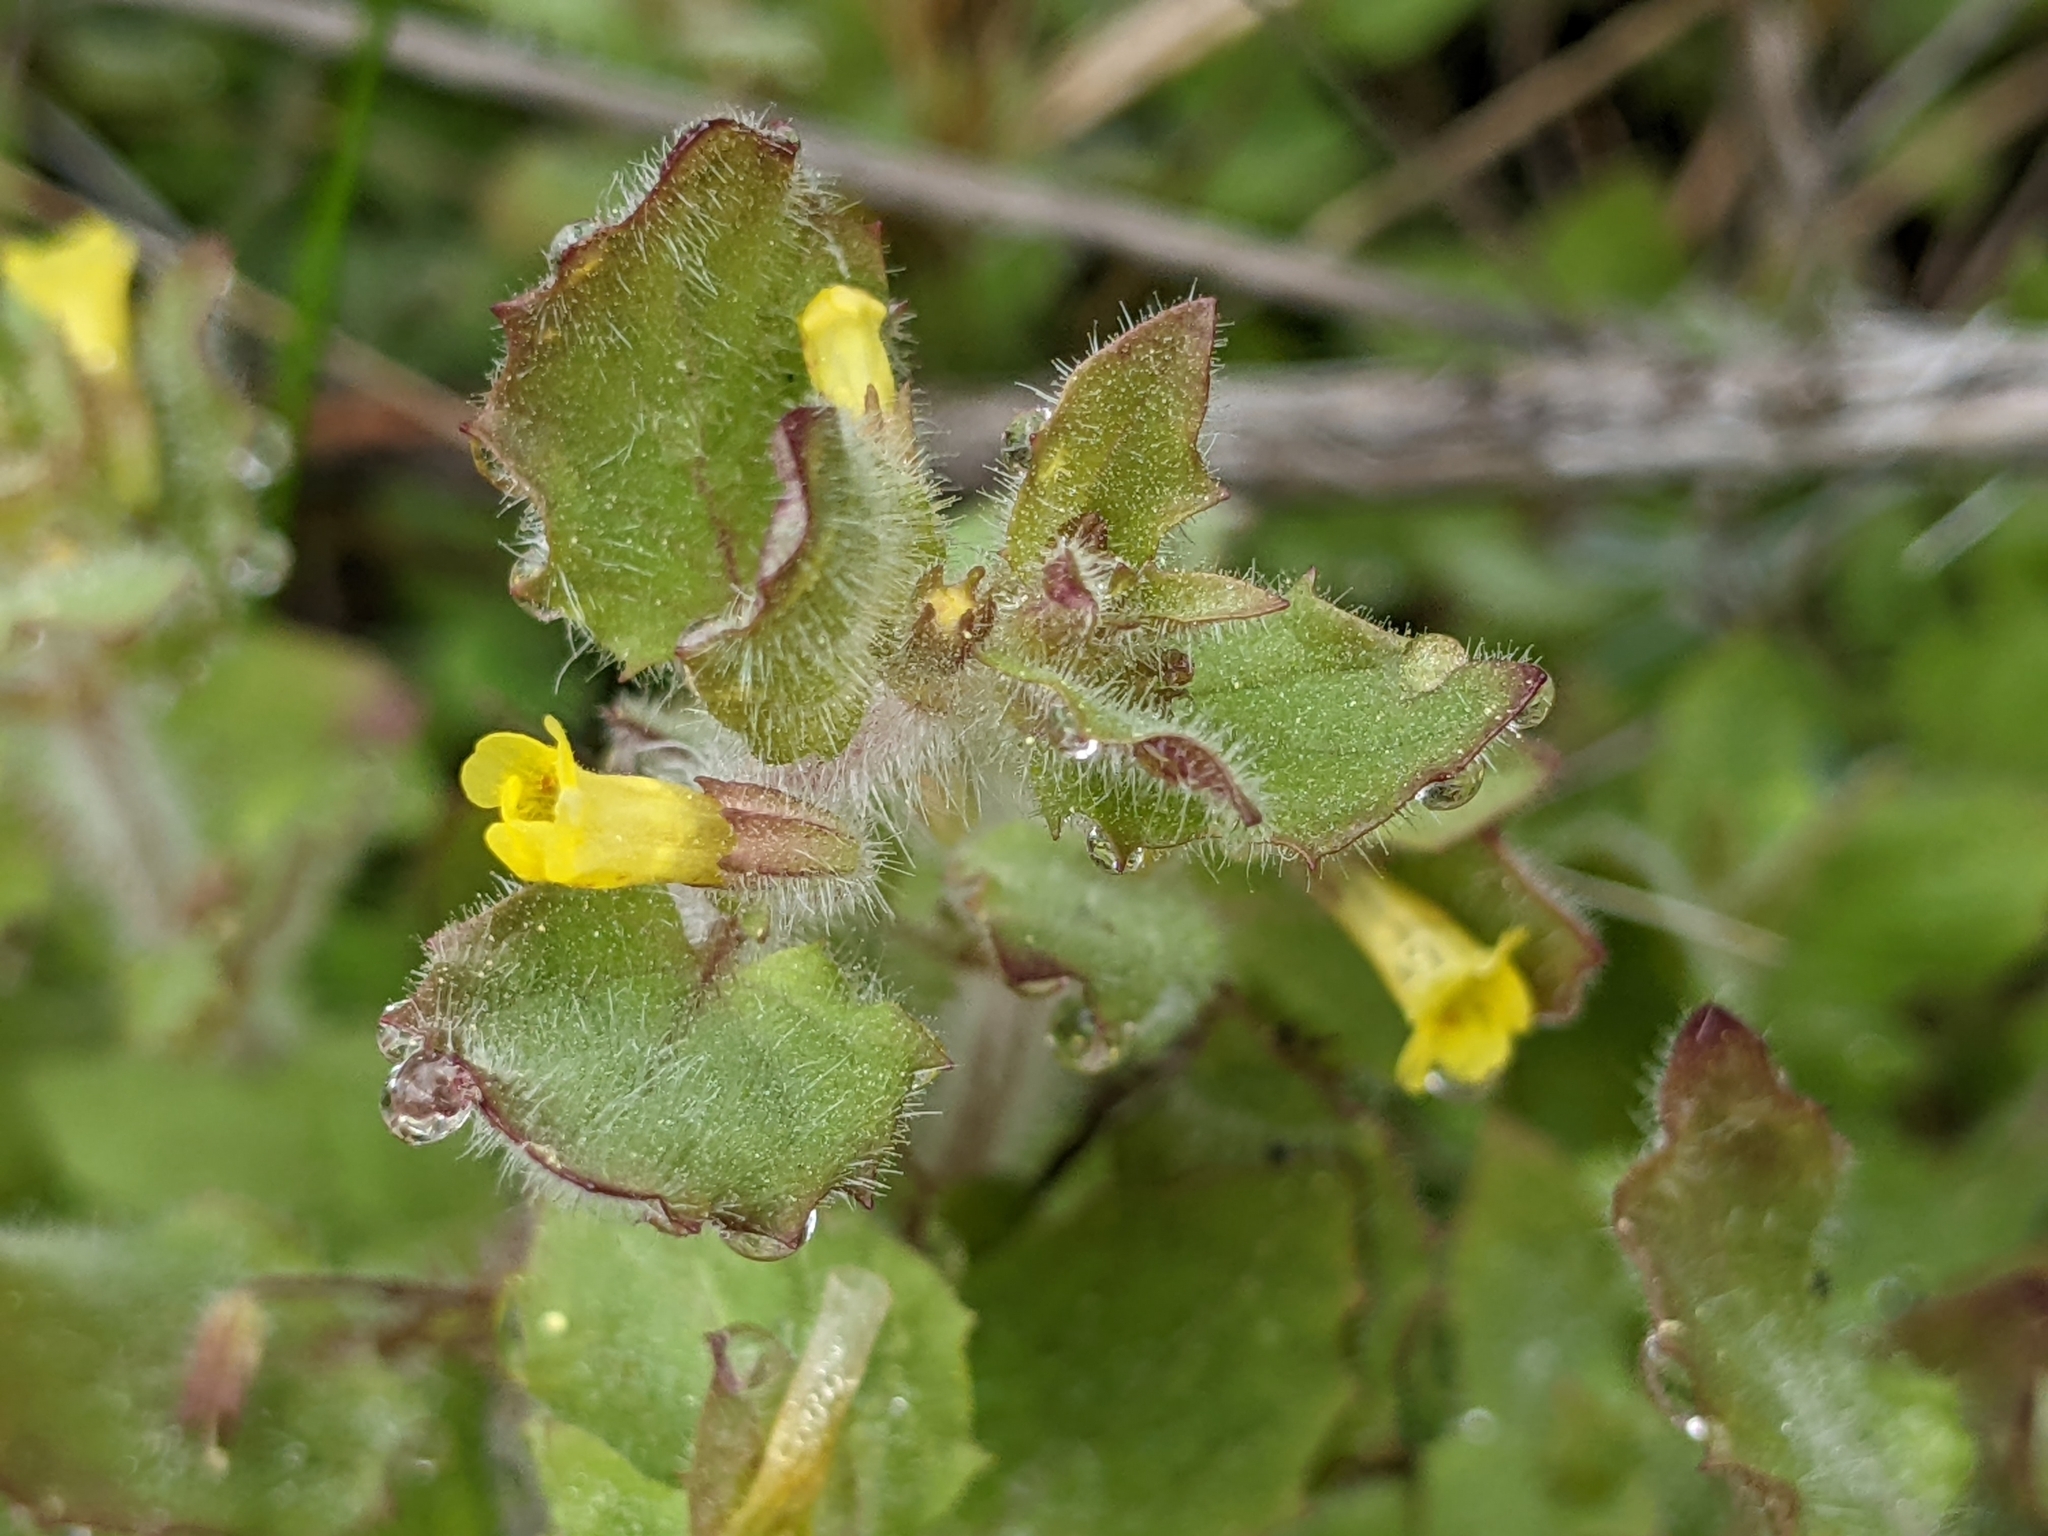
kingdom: Plantae
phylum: Tracheophyta
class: Magnoliopsida
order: Lamiales
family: Phrymaceae
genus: Erythranthe
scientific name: Erythranthe floribunda
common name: Floriferous monkeyflower
